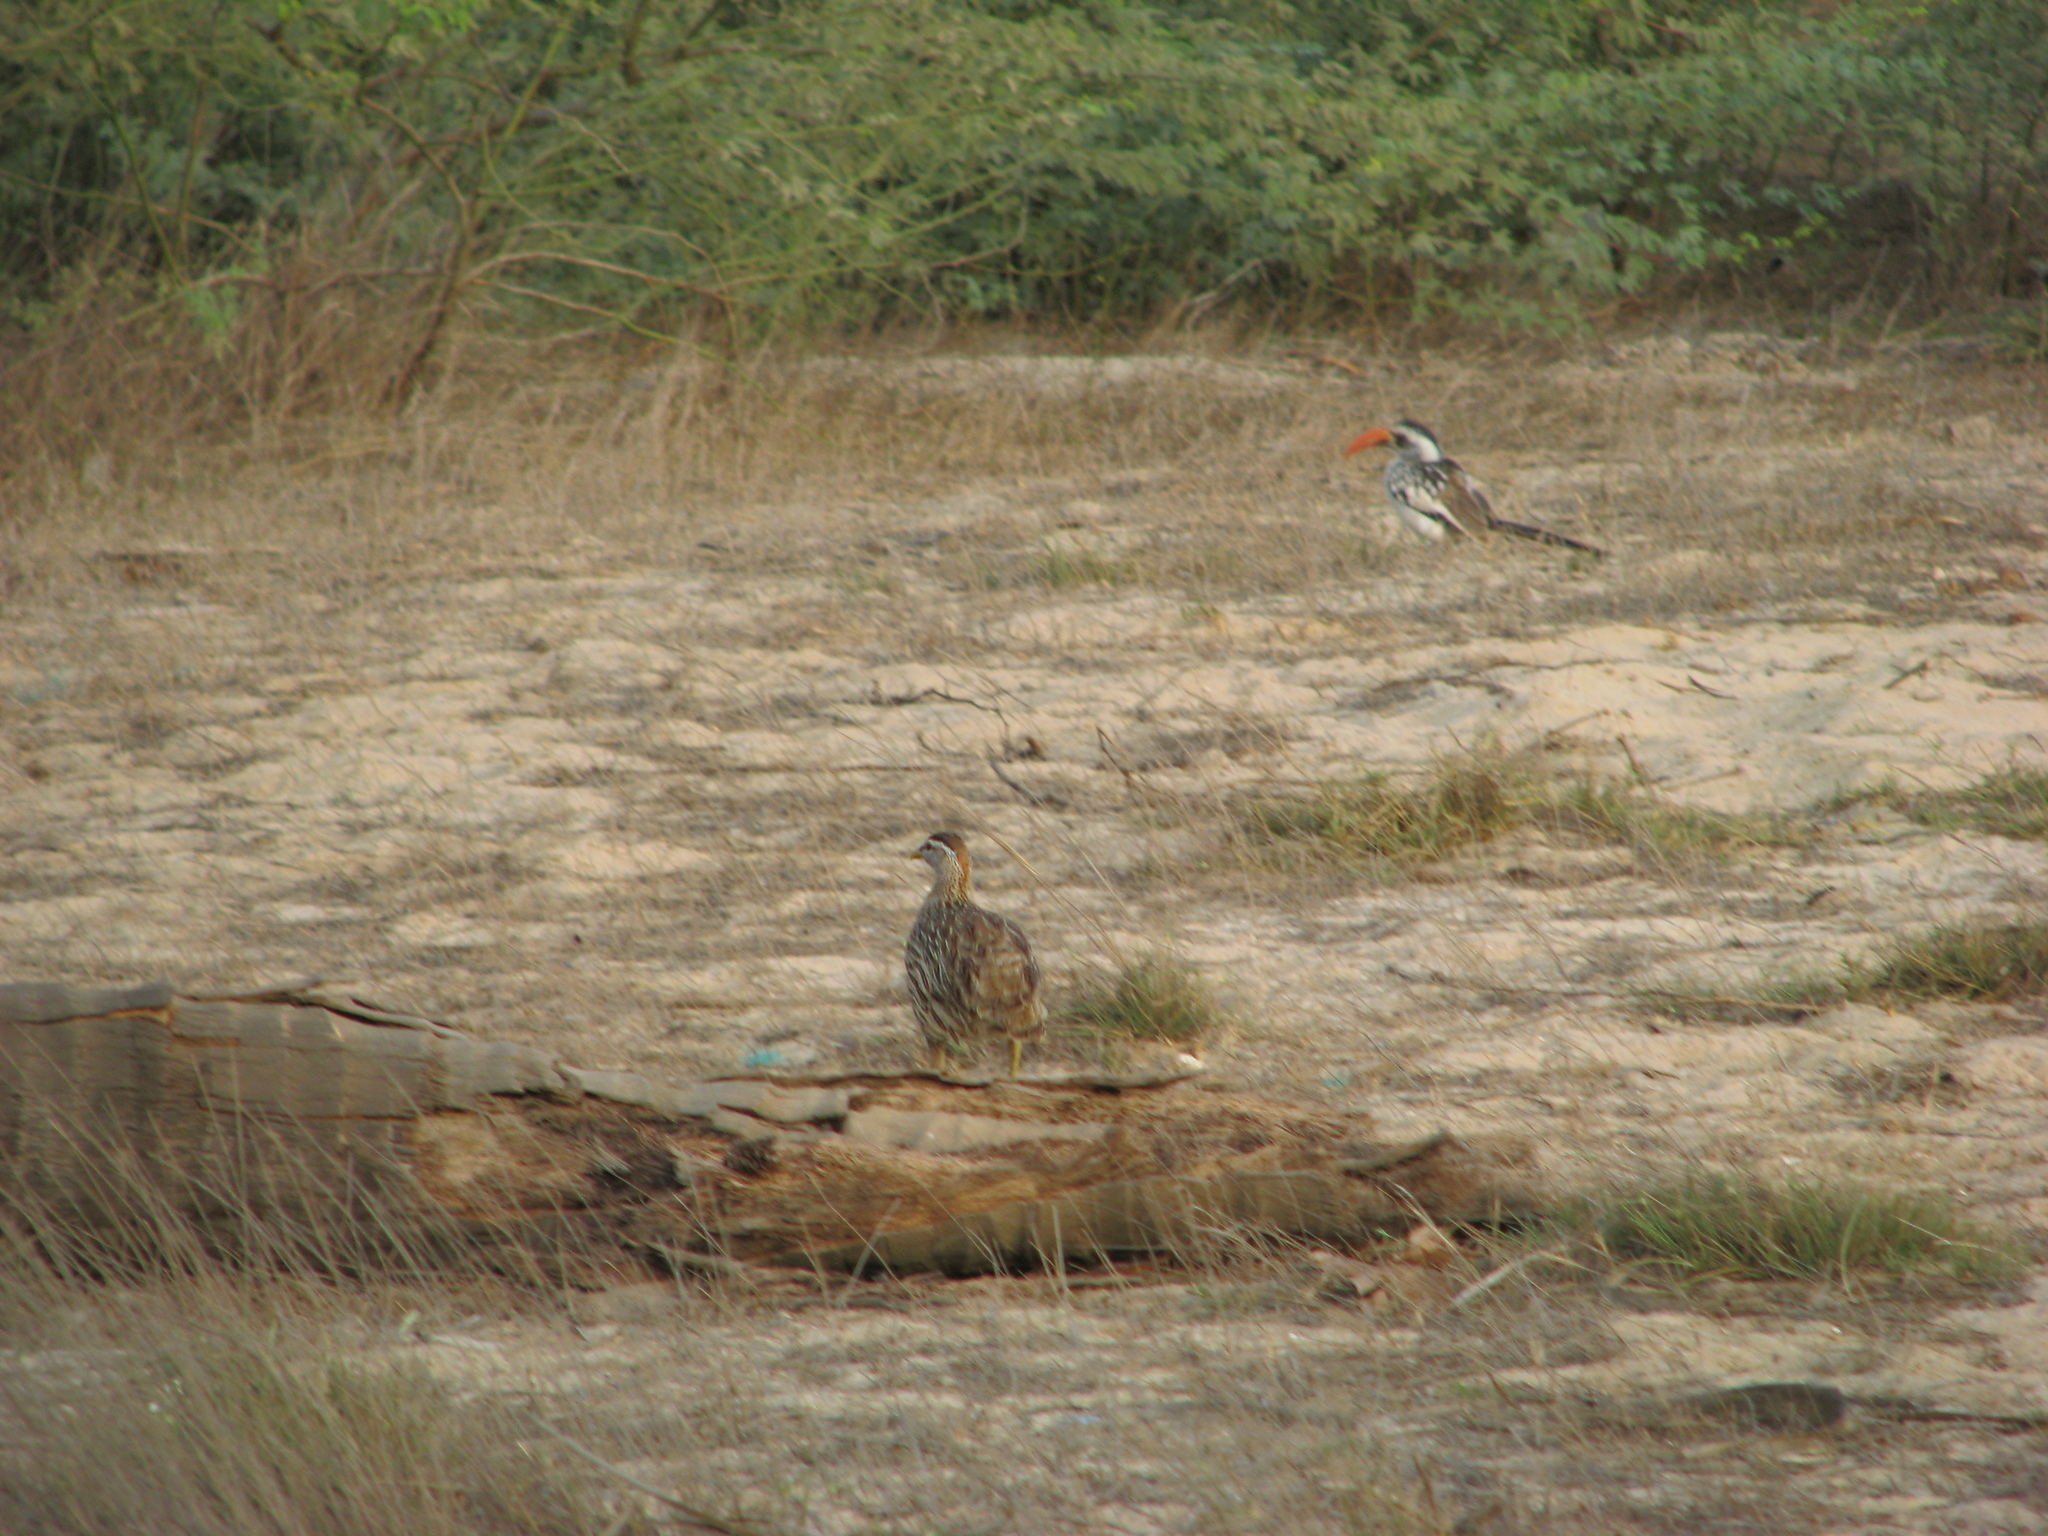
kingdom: Animalia
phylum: Chordata
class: Aves
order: Galliformes
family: Phasianidae
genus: Pternistis
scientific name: Pternistis bicalcaratus
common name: Double-spurred francolin
